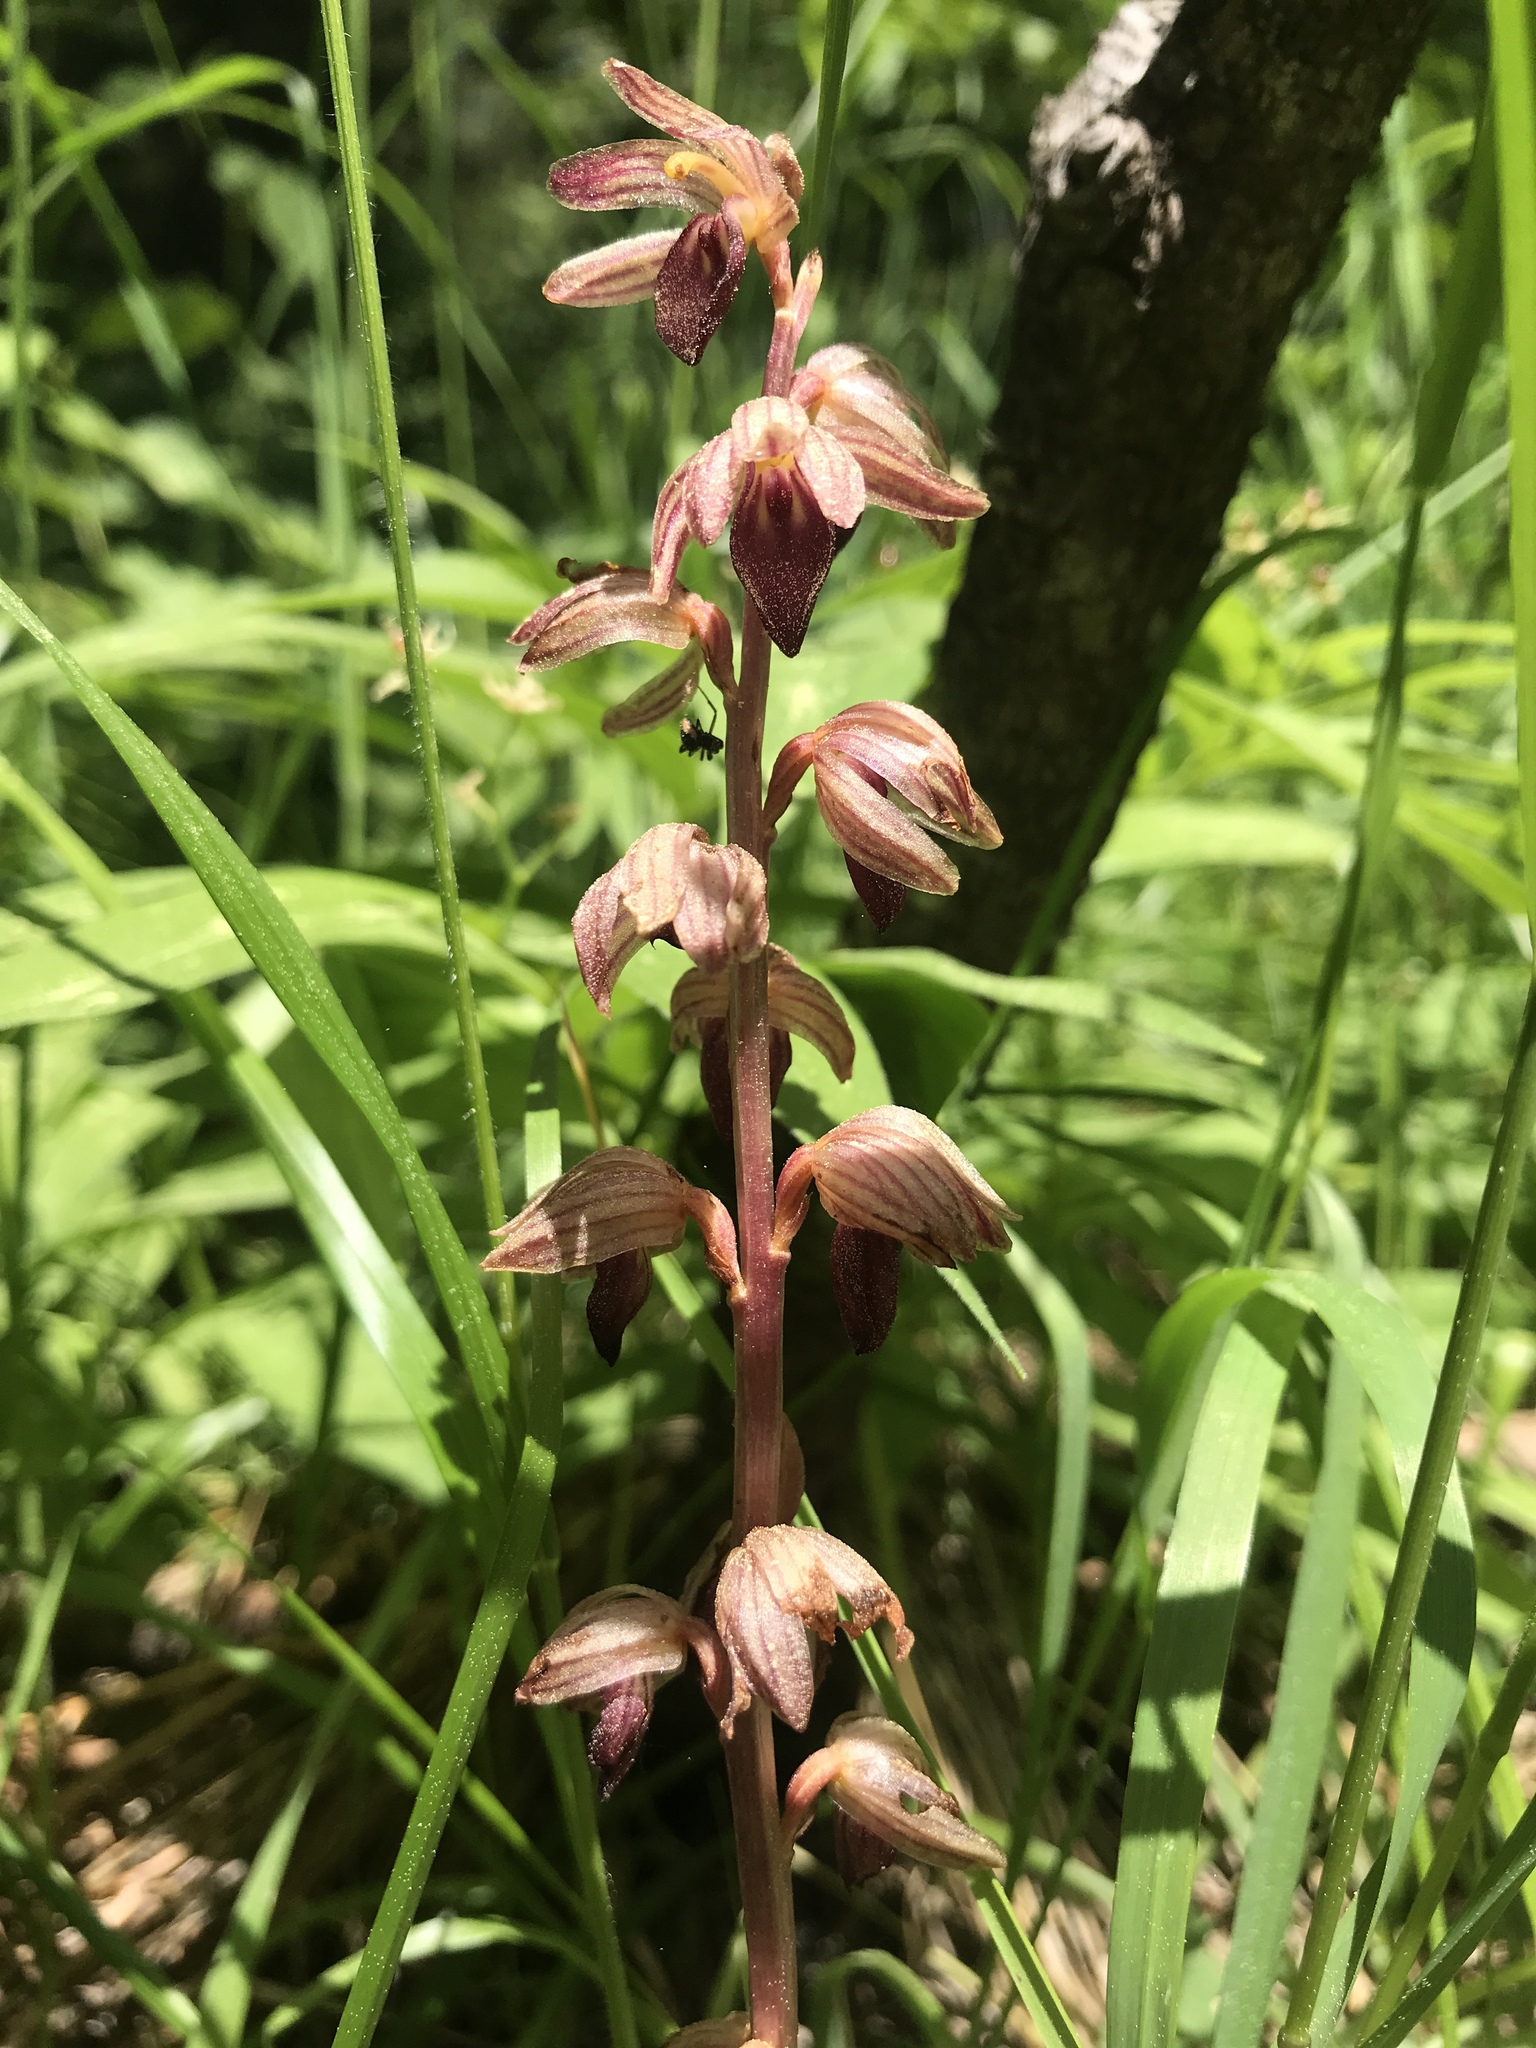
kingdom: Plantae
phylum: Tracheophyta
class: Liliopsida
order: Asparagales
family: Orchidaceae
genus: Corallorhiza
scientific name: Corallorhiza striata
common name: Hooded coralroot
